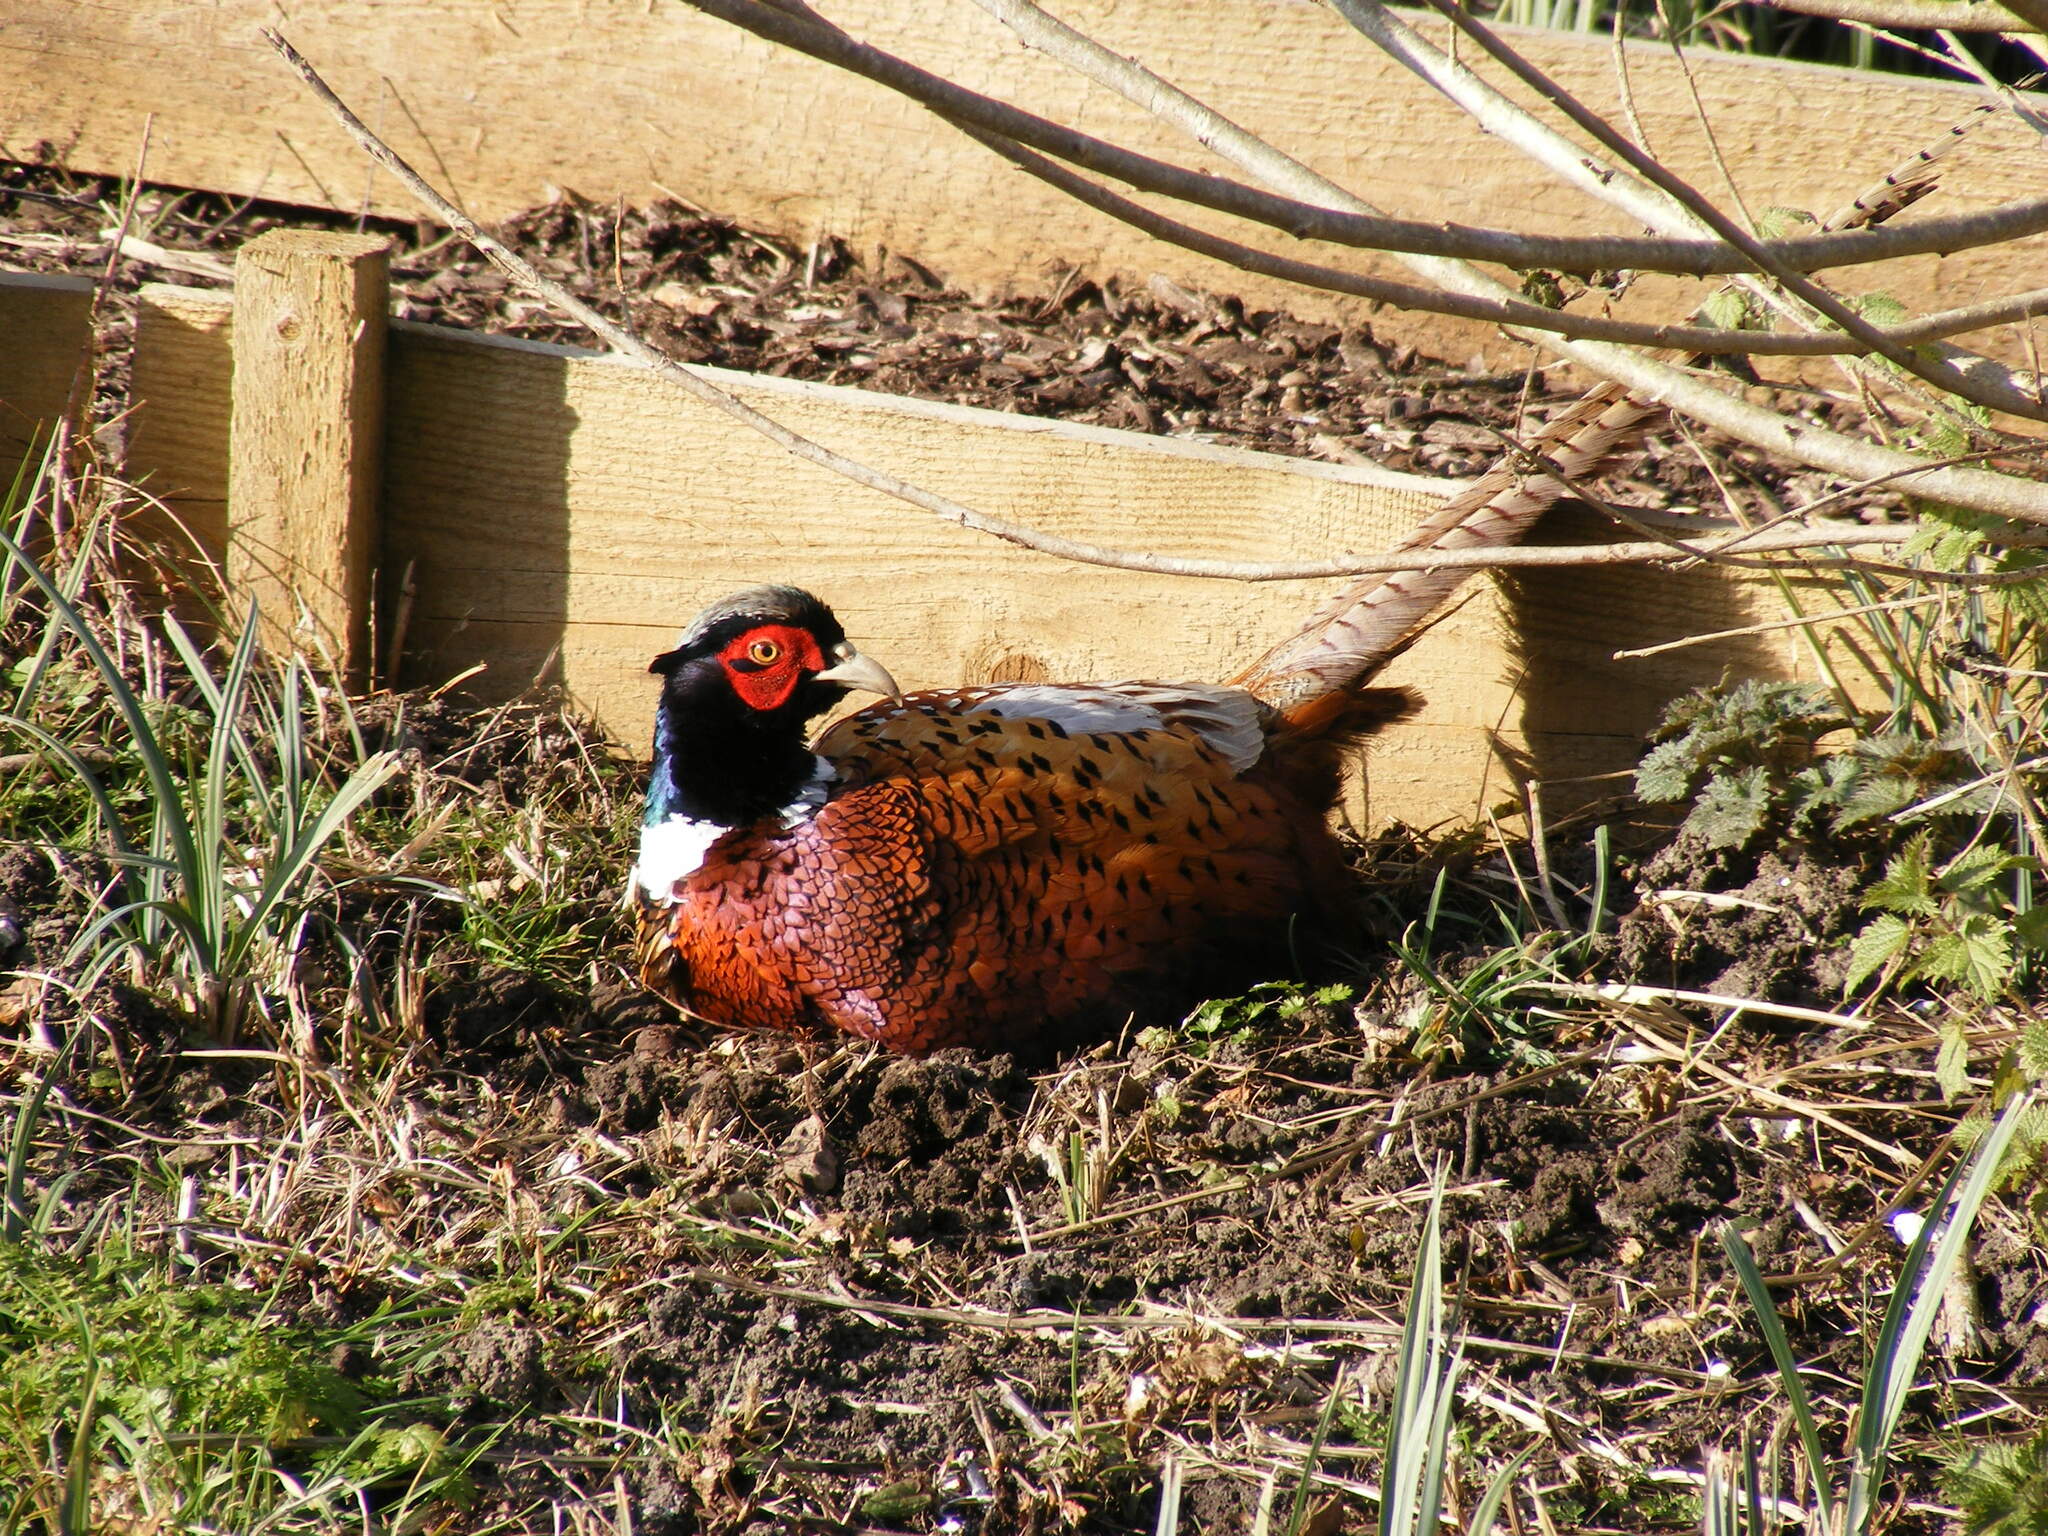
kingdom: Animalia
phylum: Chordata
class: Aves
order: Galliformes
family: Phasianidae
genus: Phasianus
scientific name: Phasianus colchicus
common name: Common pheasant
